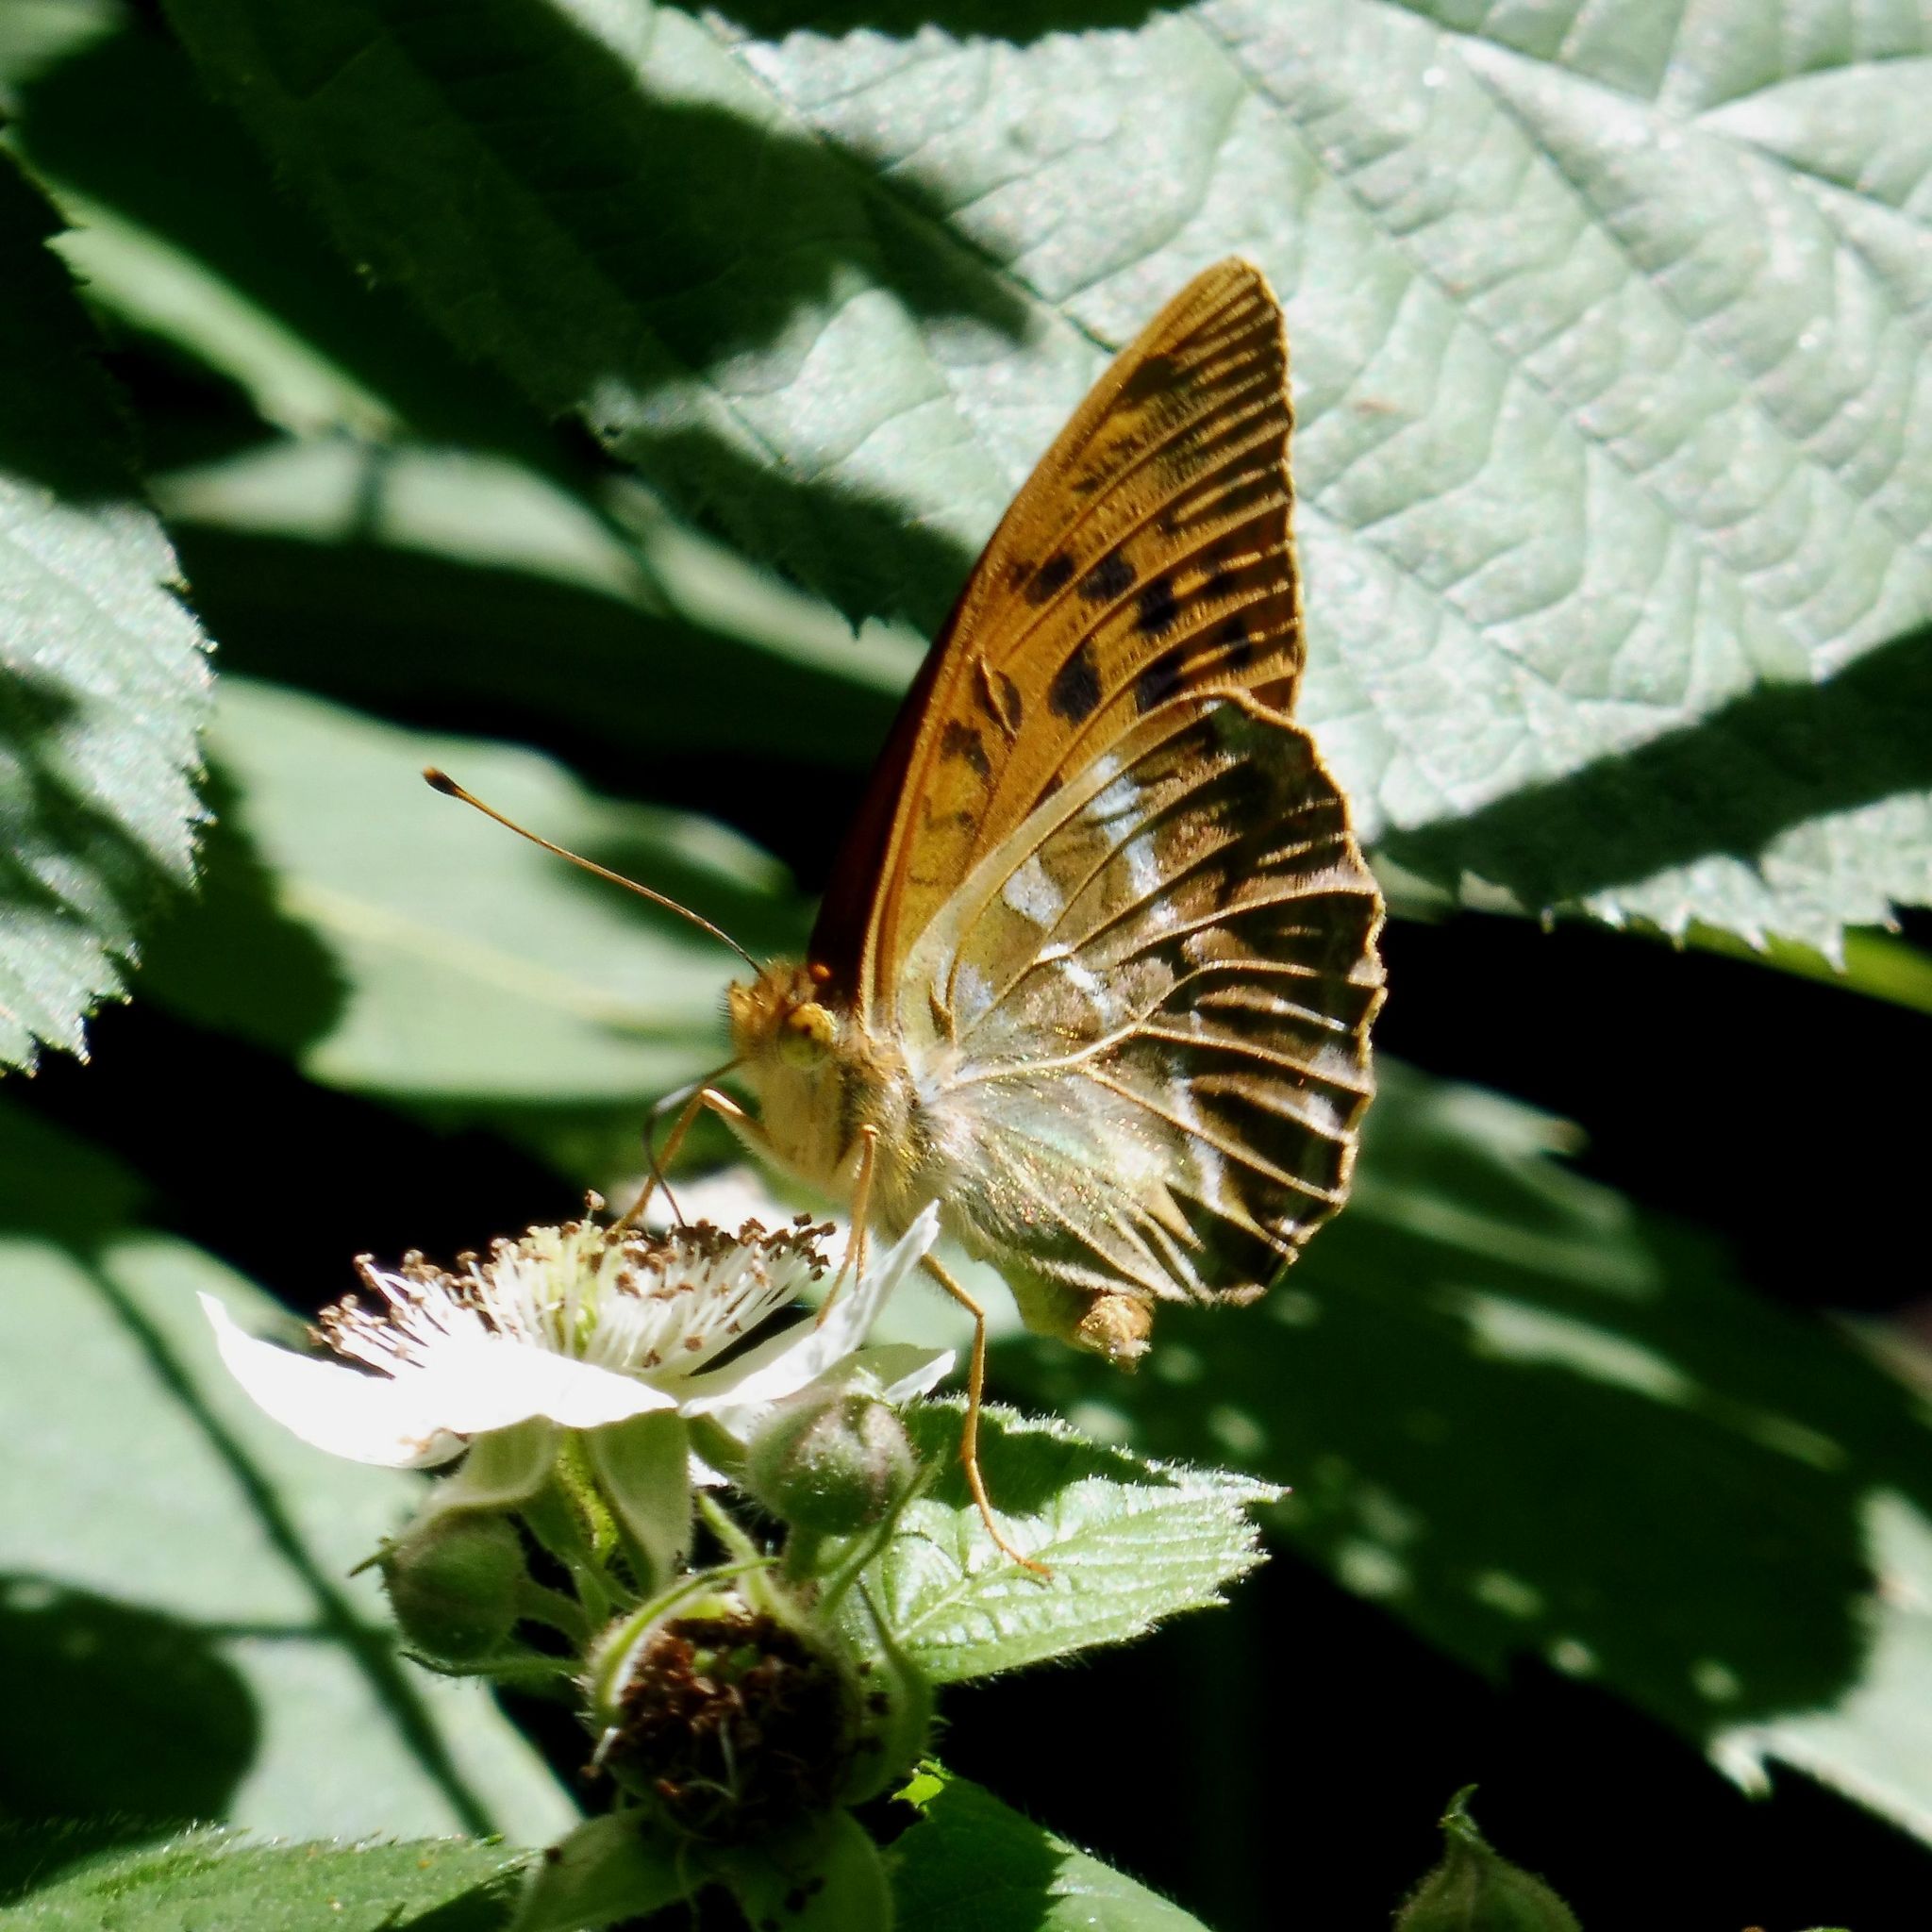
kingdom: Animalia
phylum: Arthropoda
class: Insecta
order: Lepidoptera
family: Nymphalidae
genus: Argynnis
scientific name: Argynnis paphia
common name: Silver-washed fritillary
